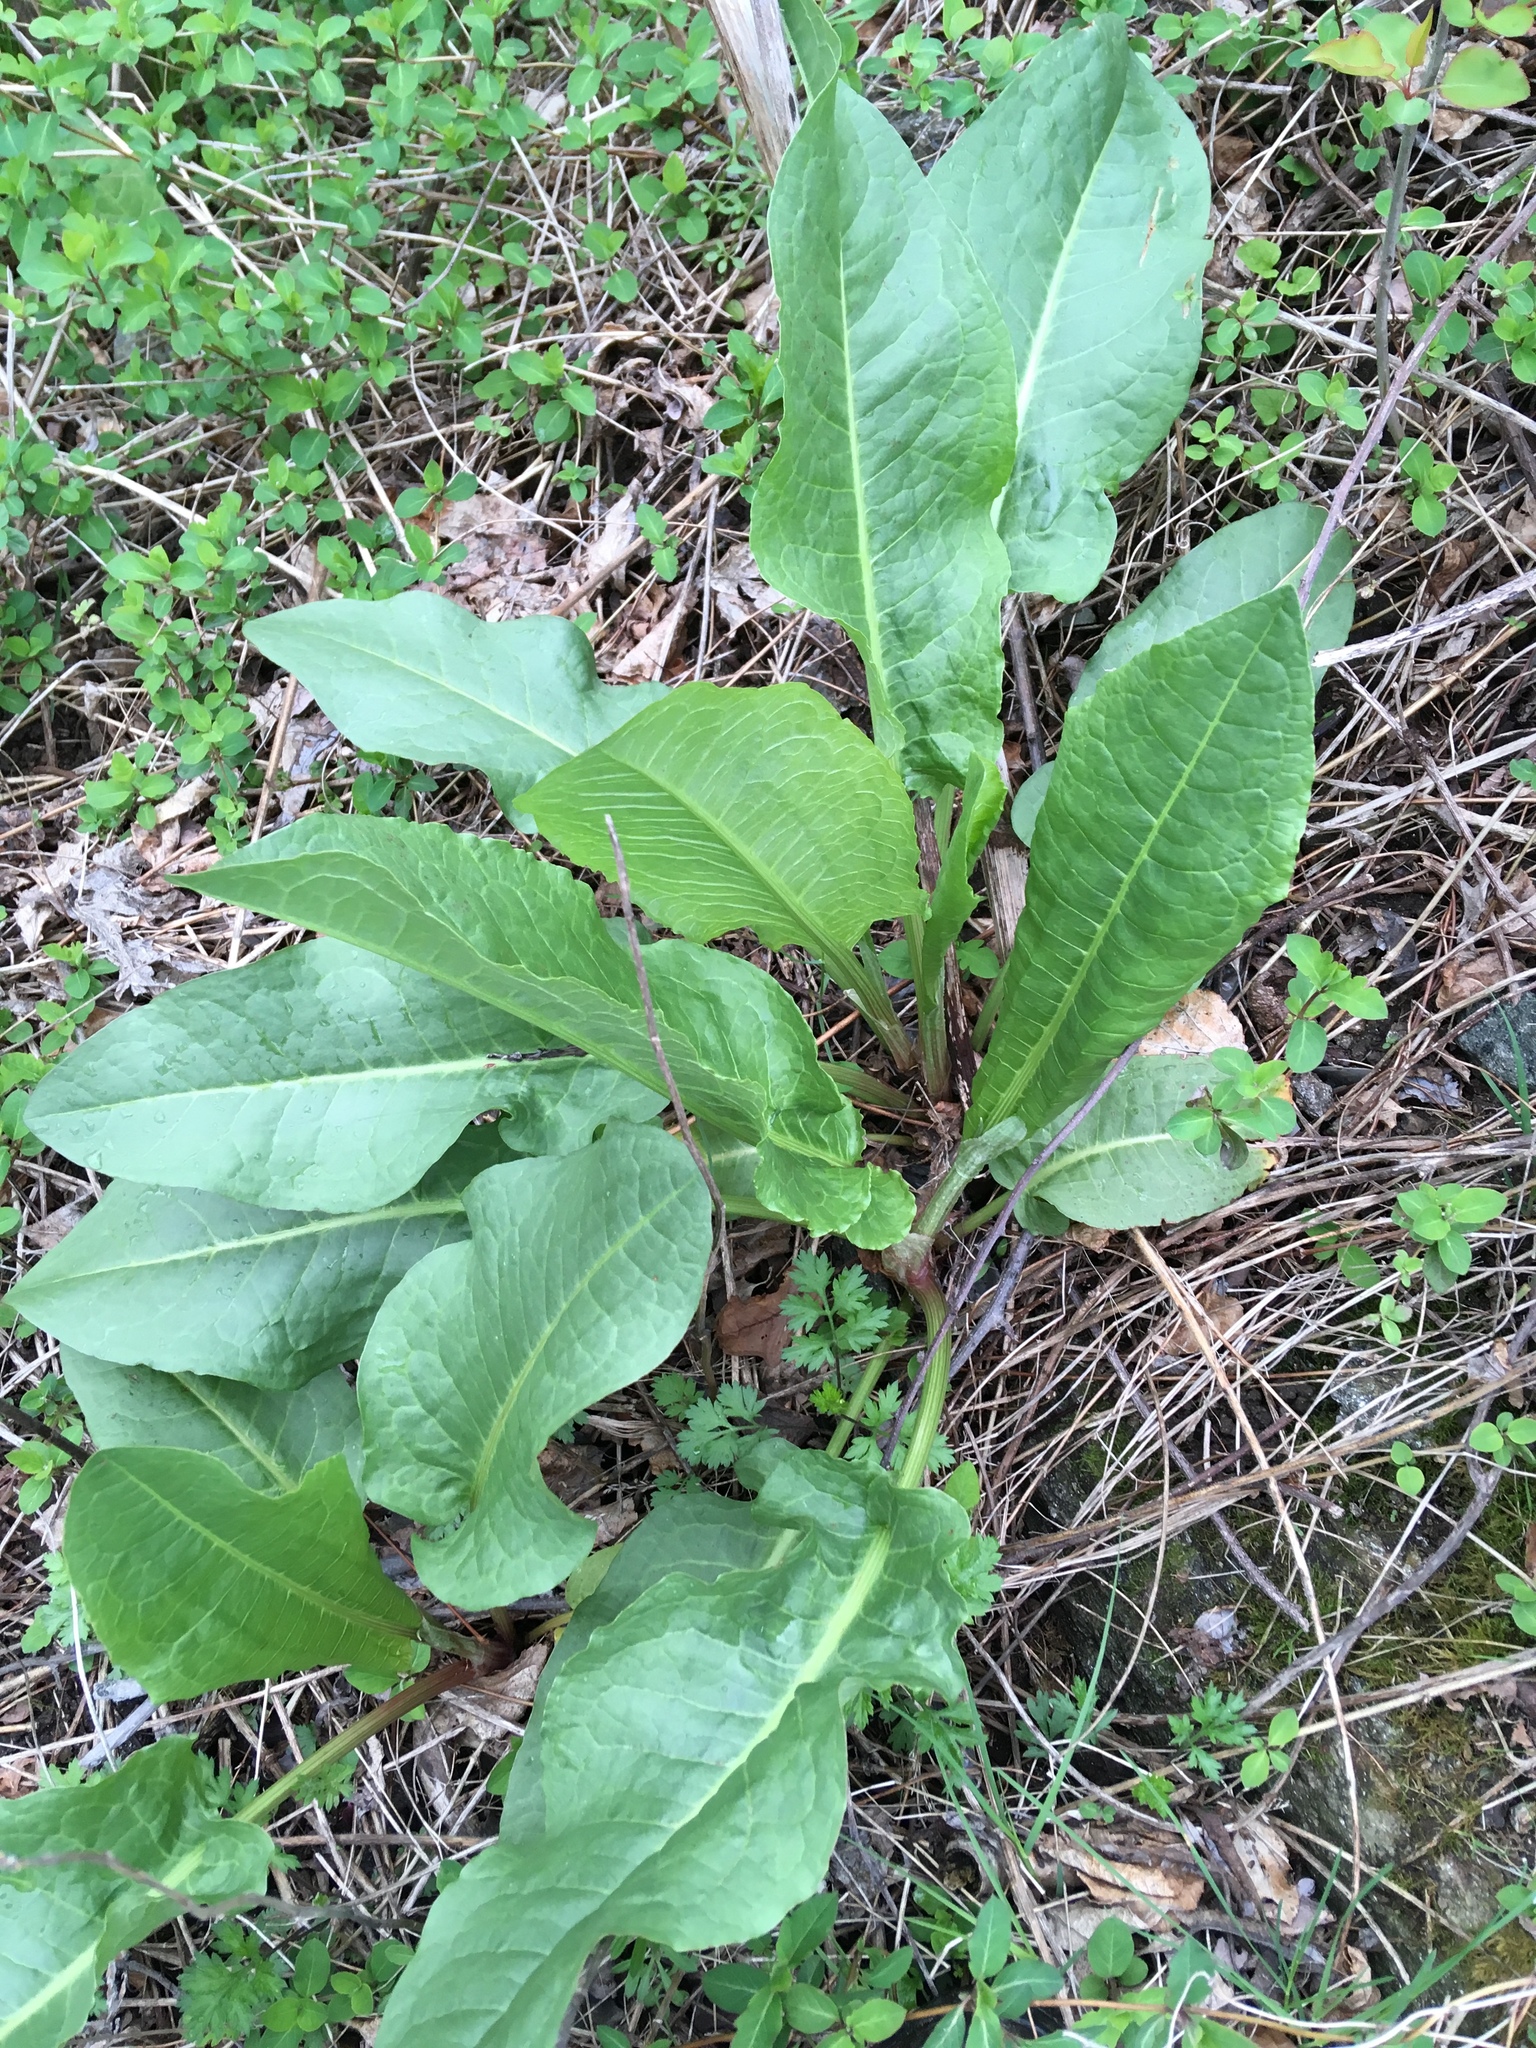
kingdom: Plantae
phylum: Tracheophyta
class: Magnoliopsida
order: Caryophyllales
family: Polygonaceae
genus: Rumex
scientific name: Rumex patientia
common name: Patience dock
